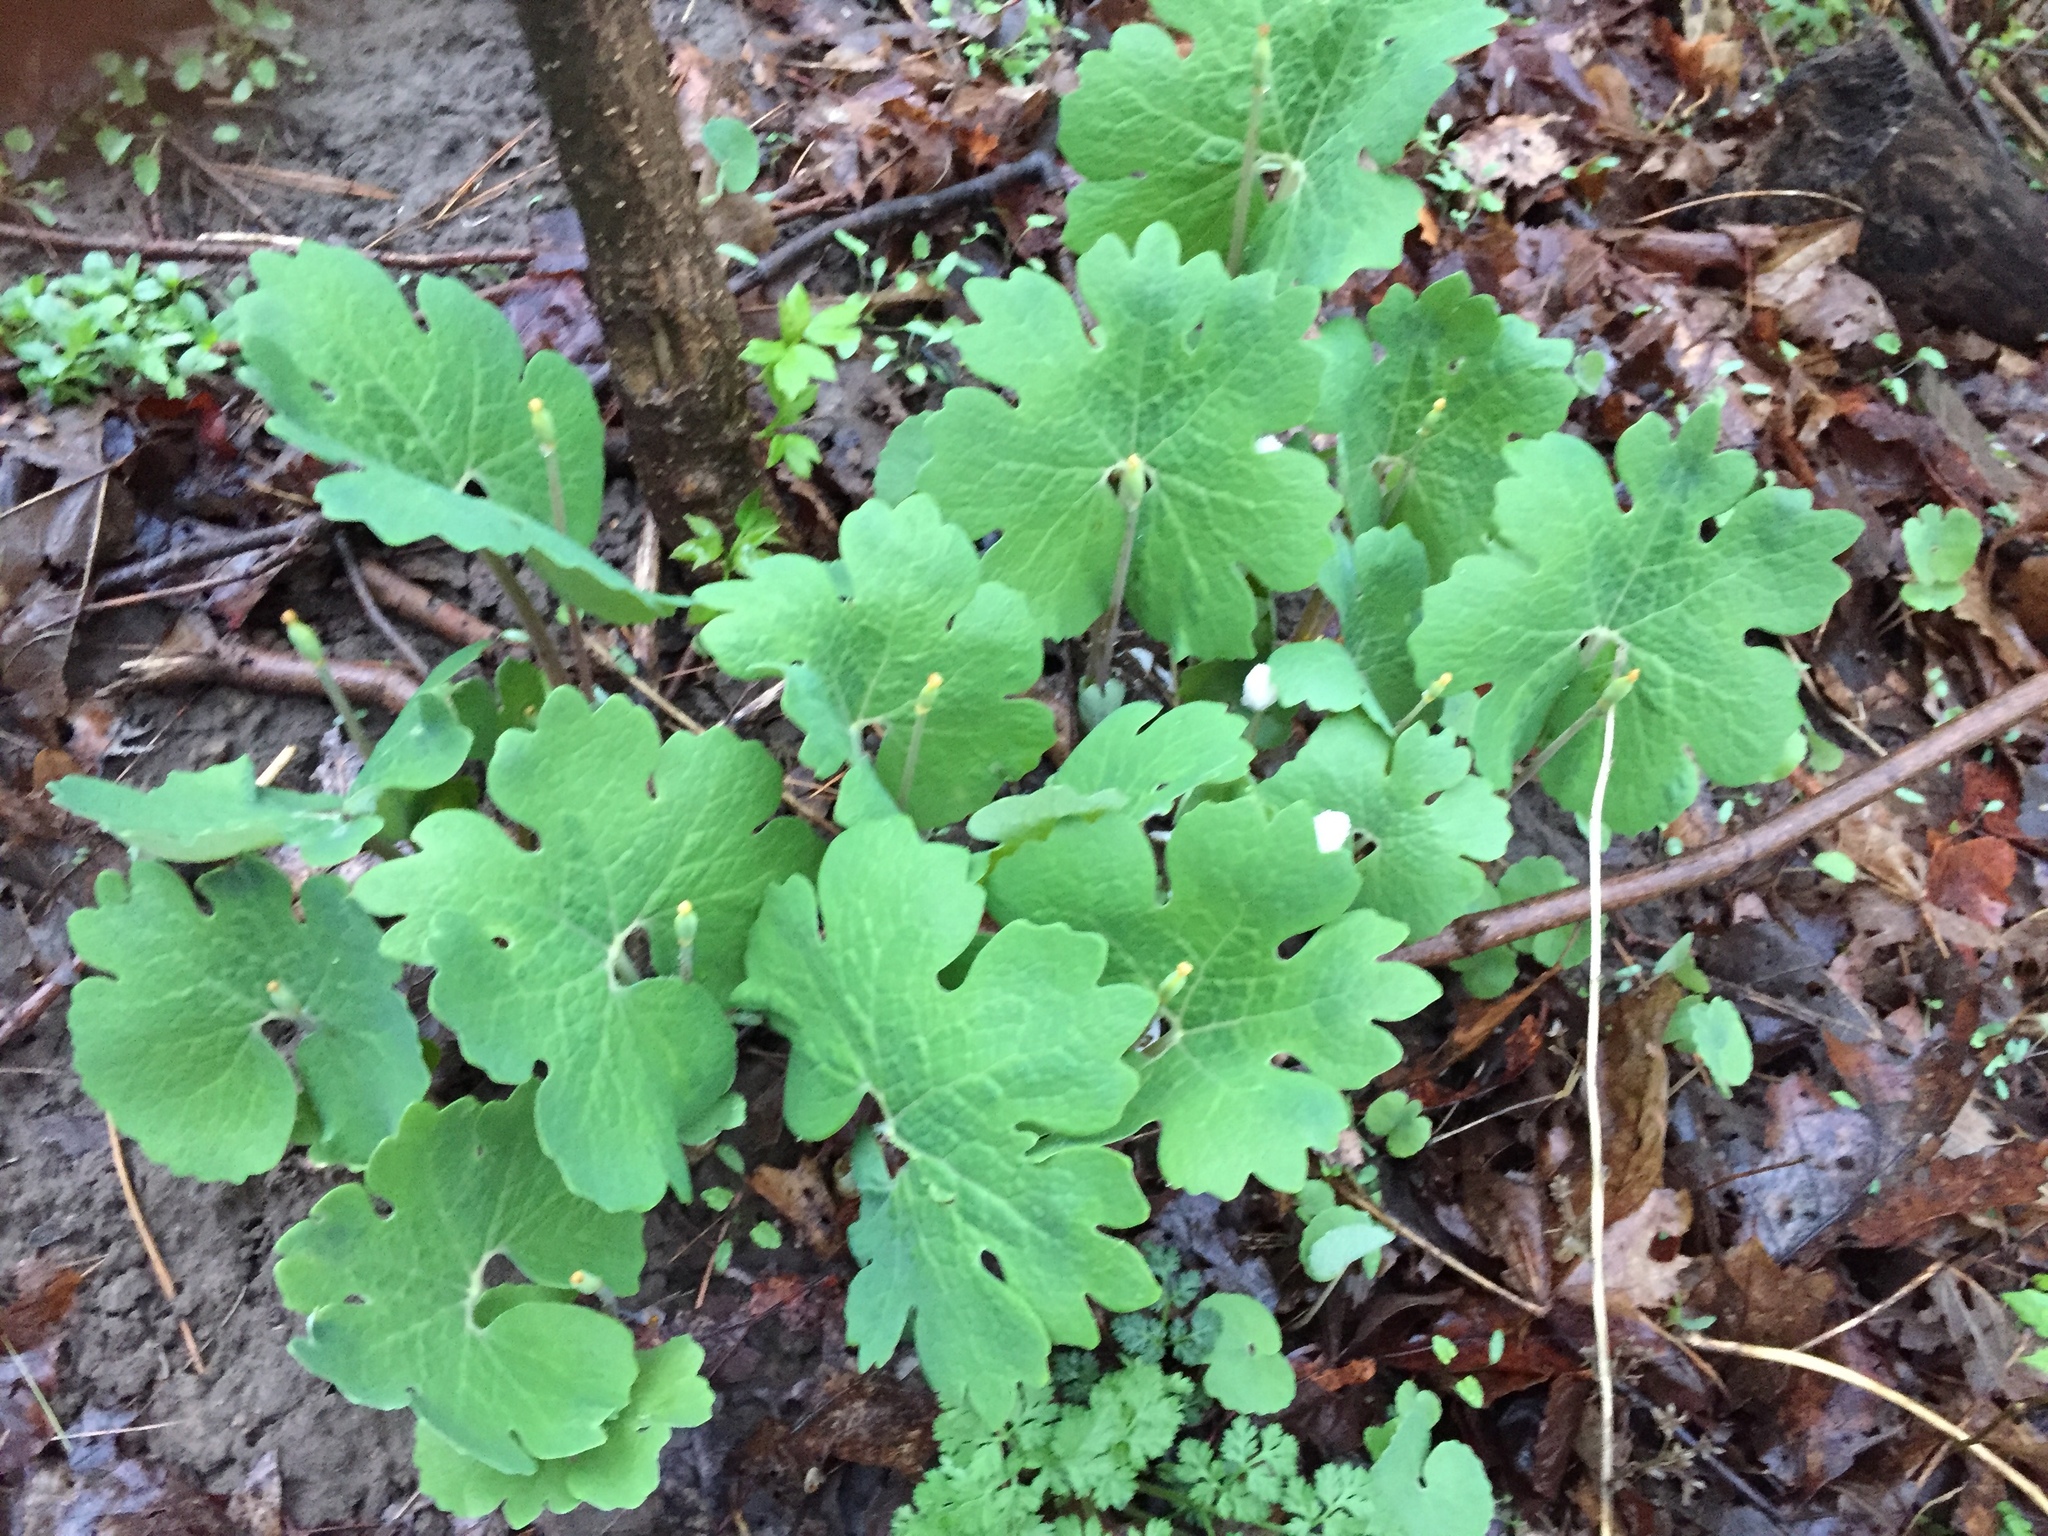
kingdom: Plantae
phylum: Tracheophyta
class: Magnoliopsida
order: Ranunculales
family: Papaveraceae
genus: Sanguinaria
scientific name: Sanguinaria canadensis
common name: Bloodroot
